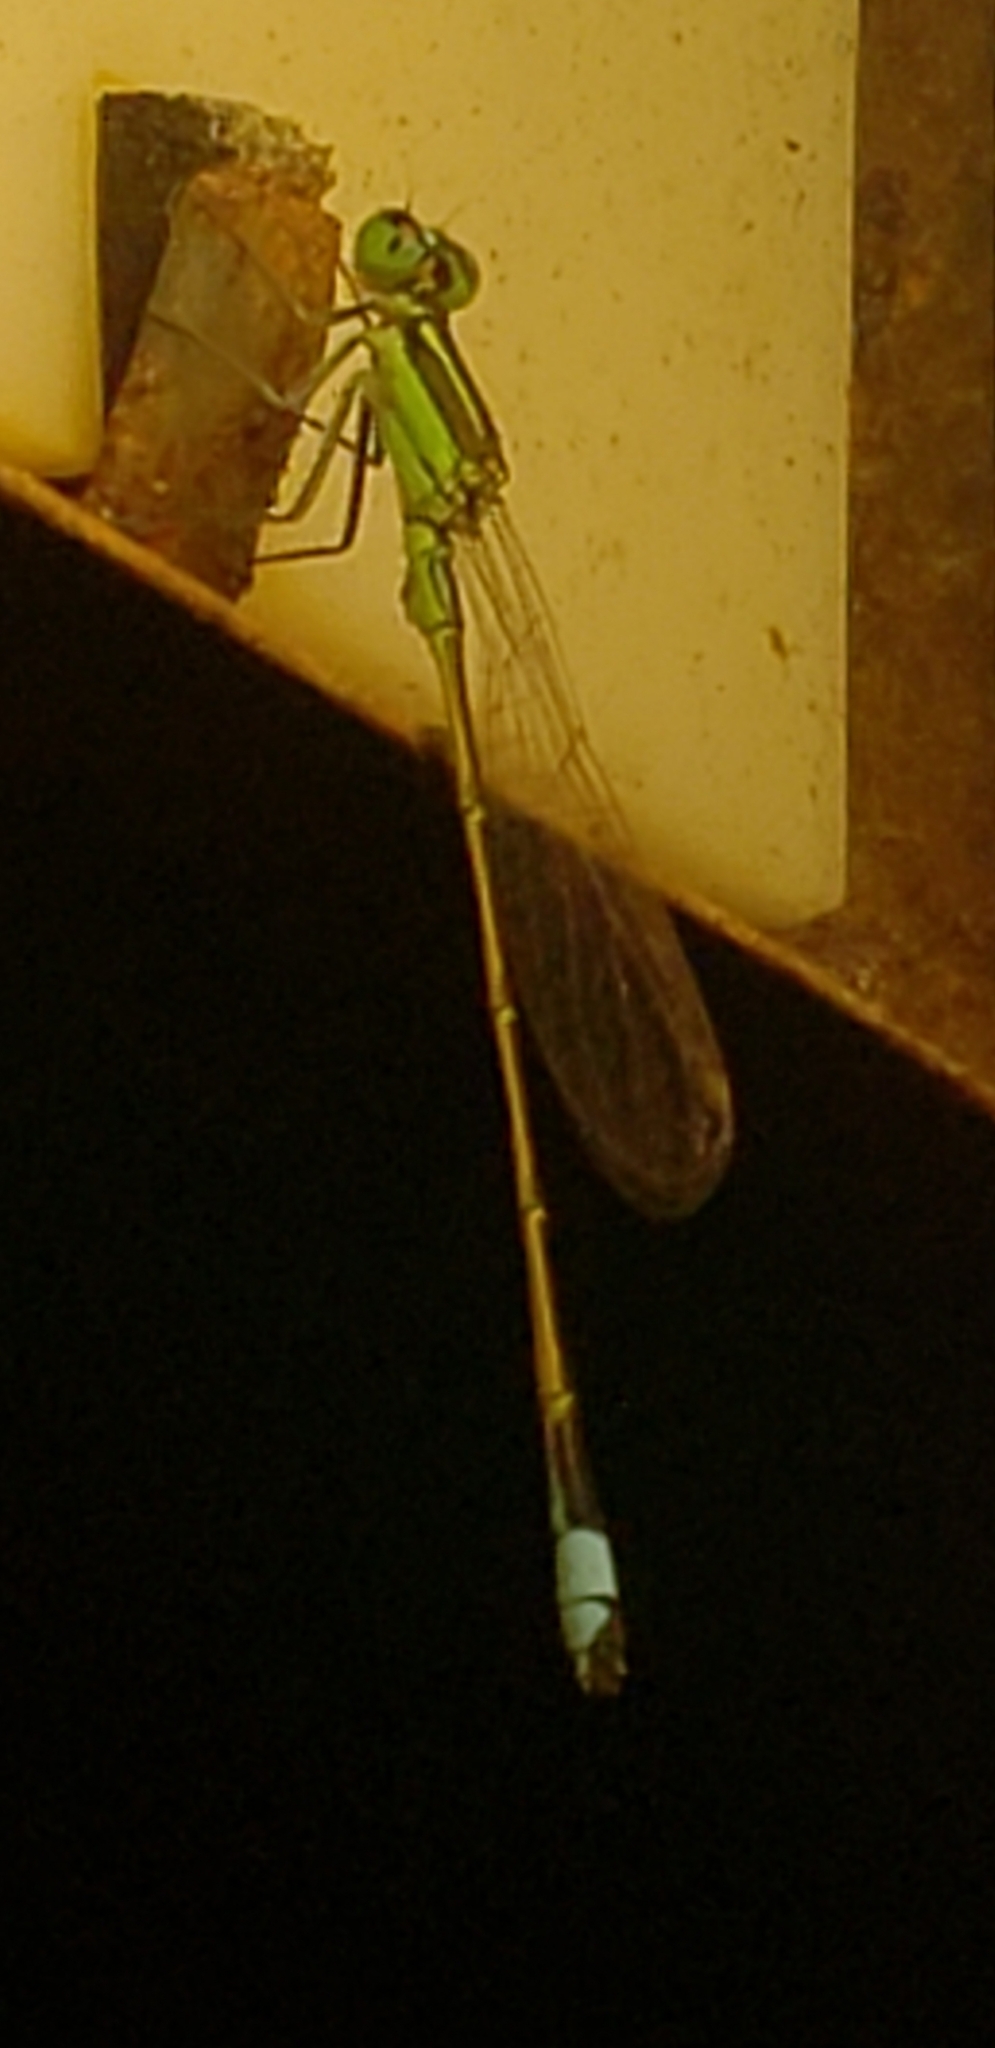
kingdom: Animalia
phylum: Arthropoda
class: Insecta
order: Odonata
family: Coenagrionidae
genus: Ischnura
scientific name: Ischnura ramburii
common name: Rambur's forktail
